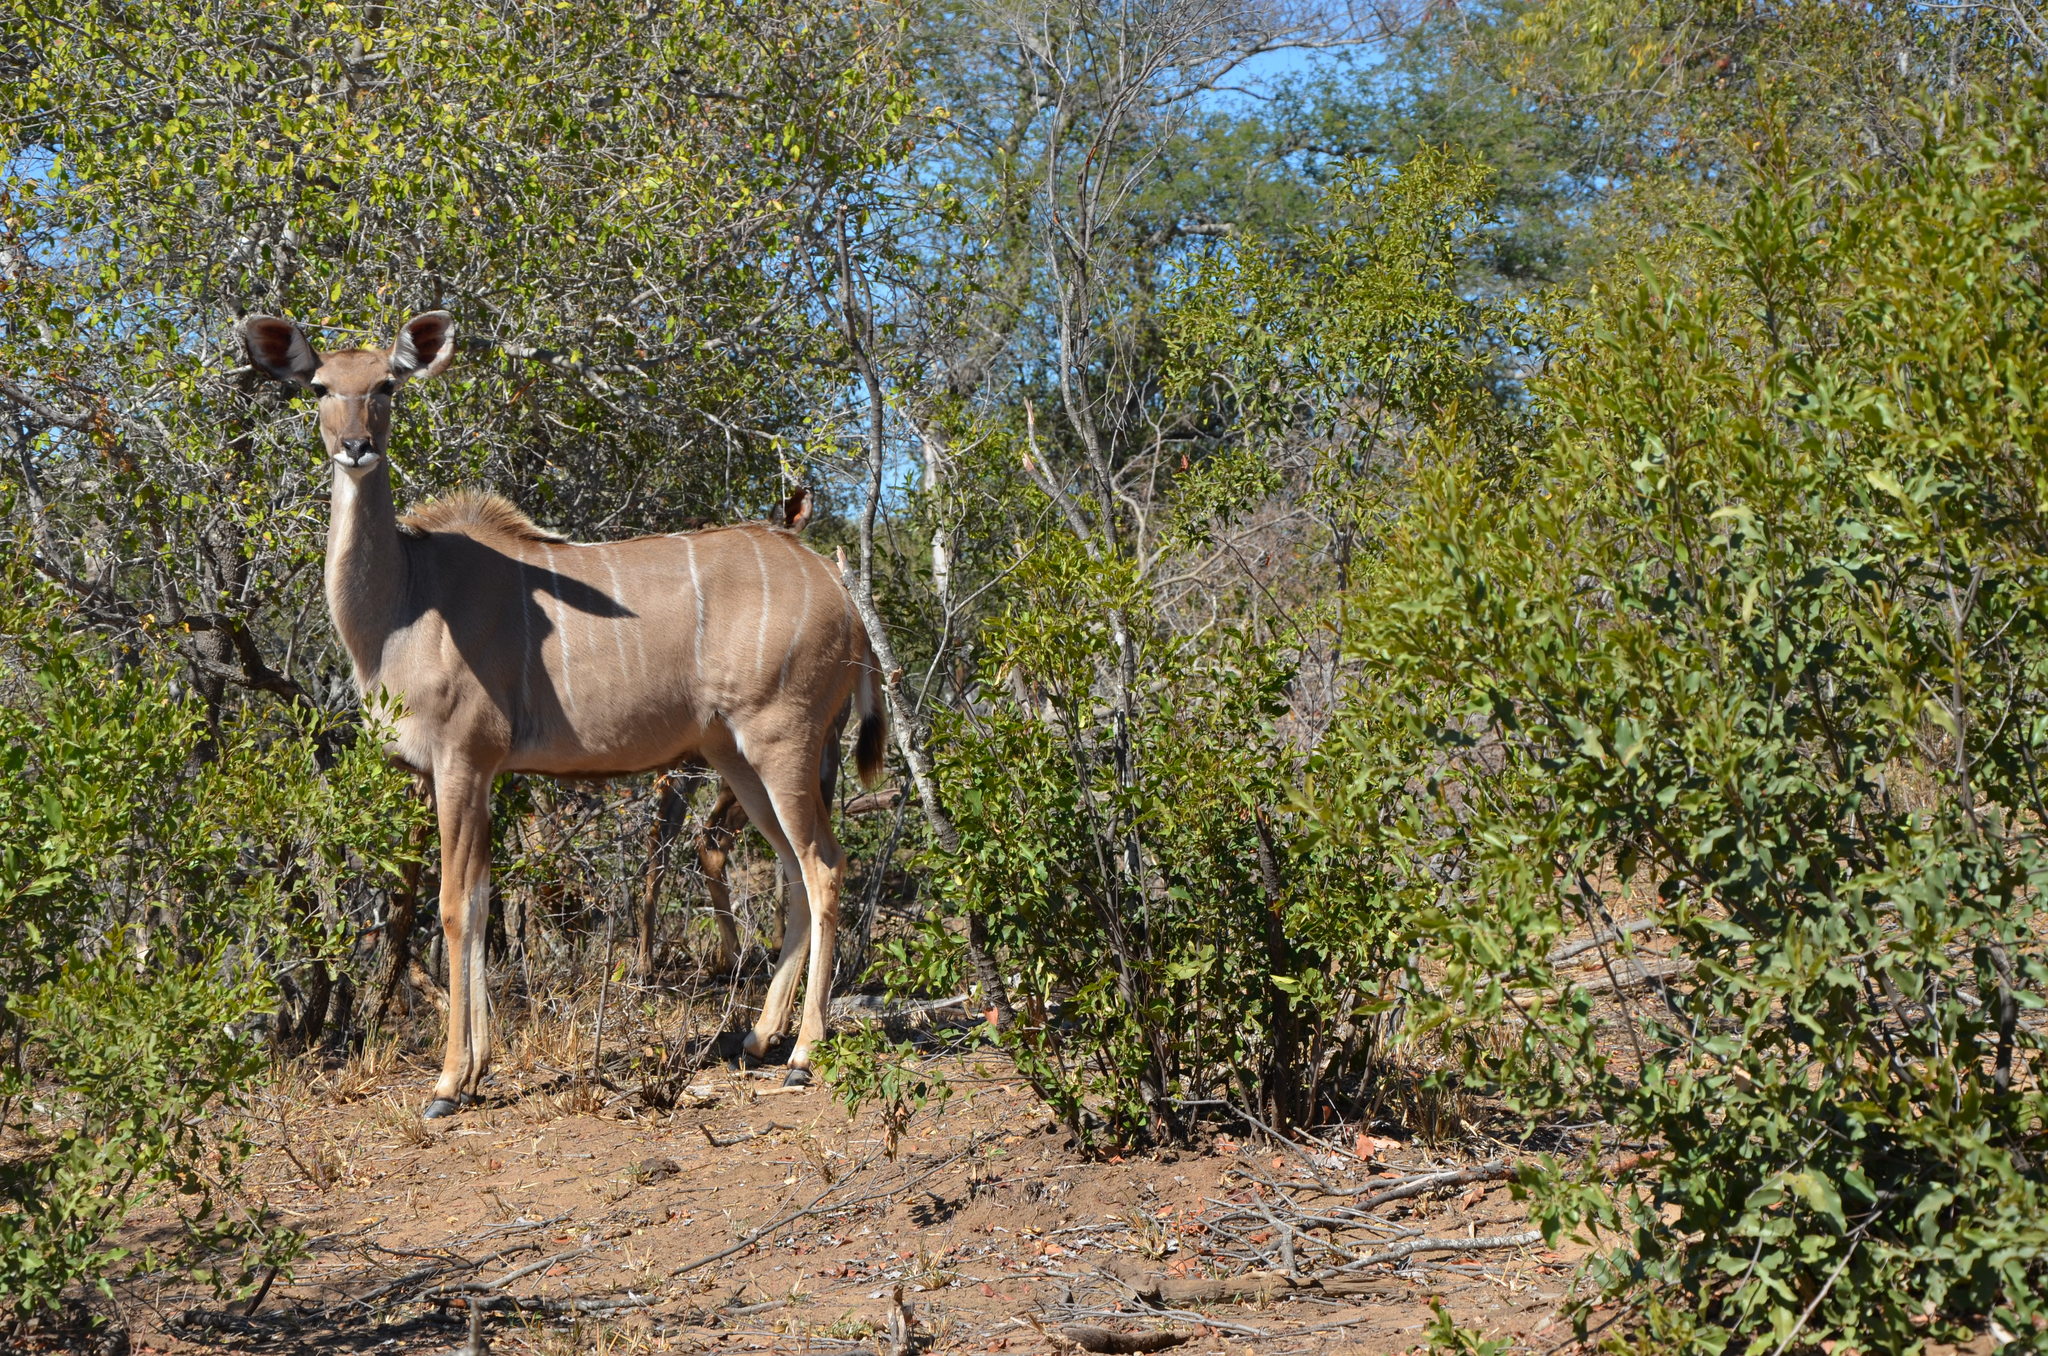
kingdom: Animalia
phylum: Chordata
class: Mammalia
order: Artiodactyla
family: Bovidae
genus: Tragelaphus
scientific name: Tragelaphus strepsiceros
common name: Greater kudu
